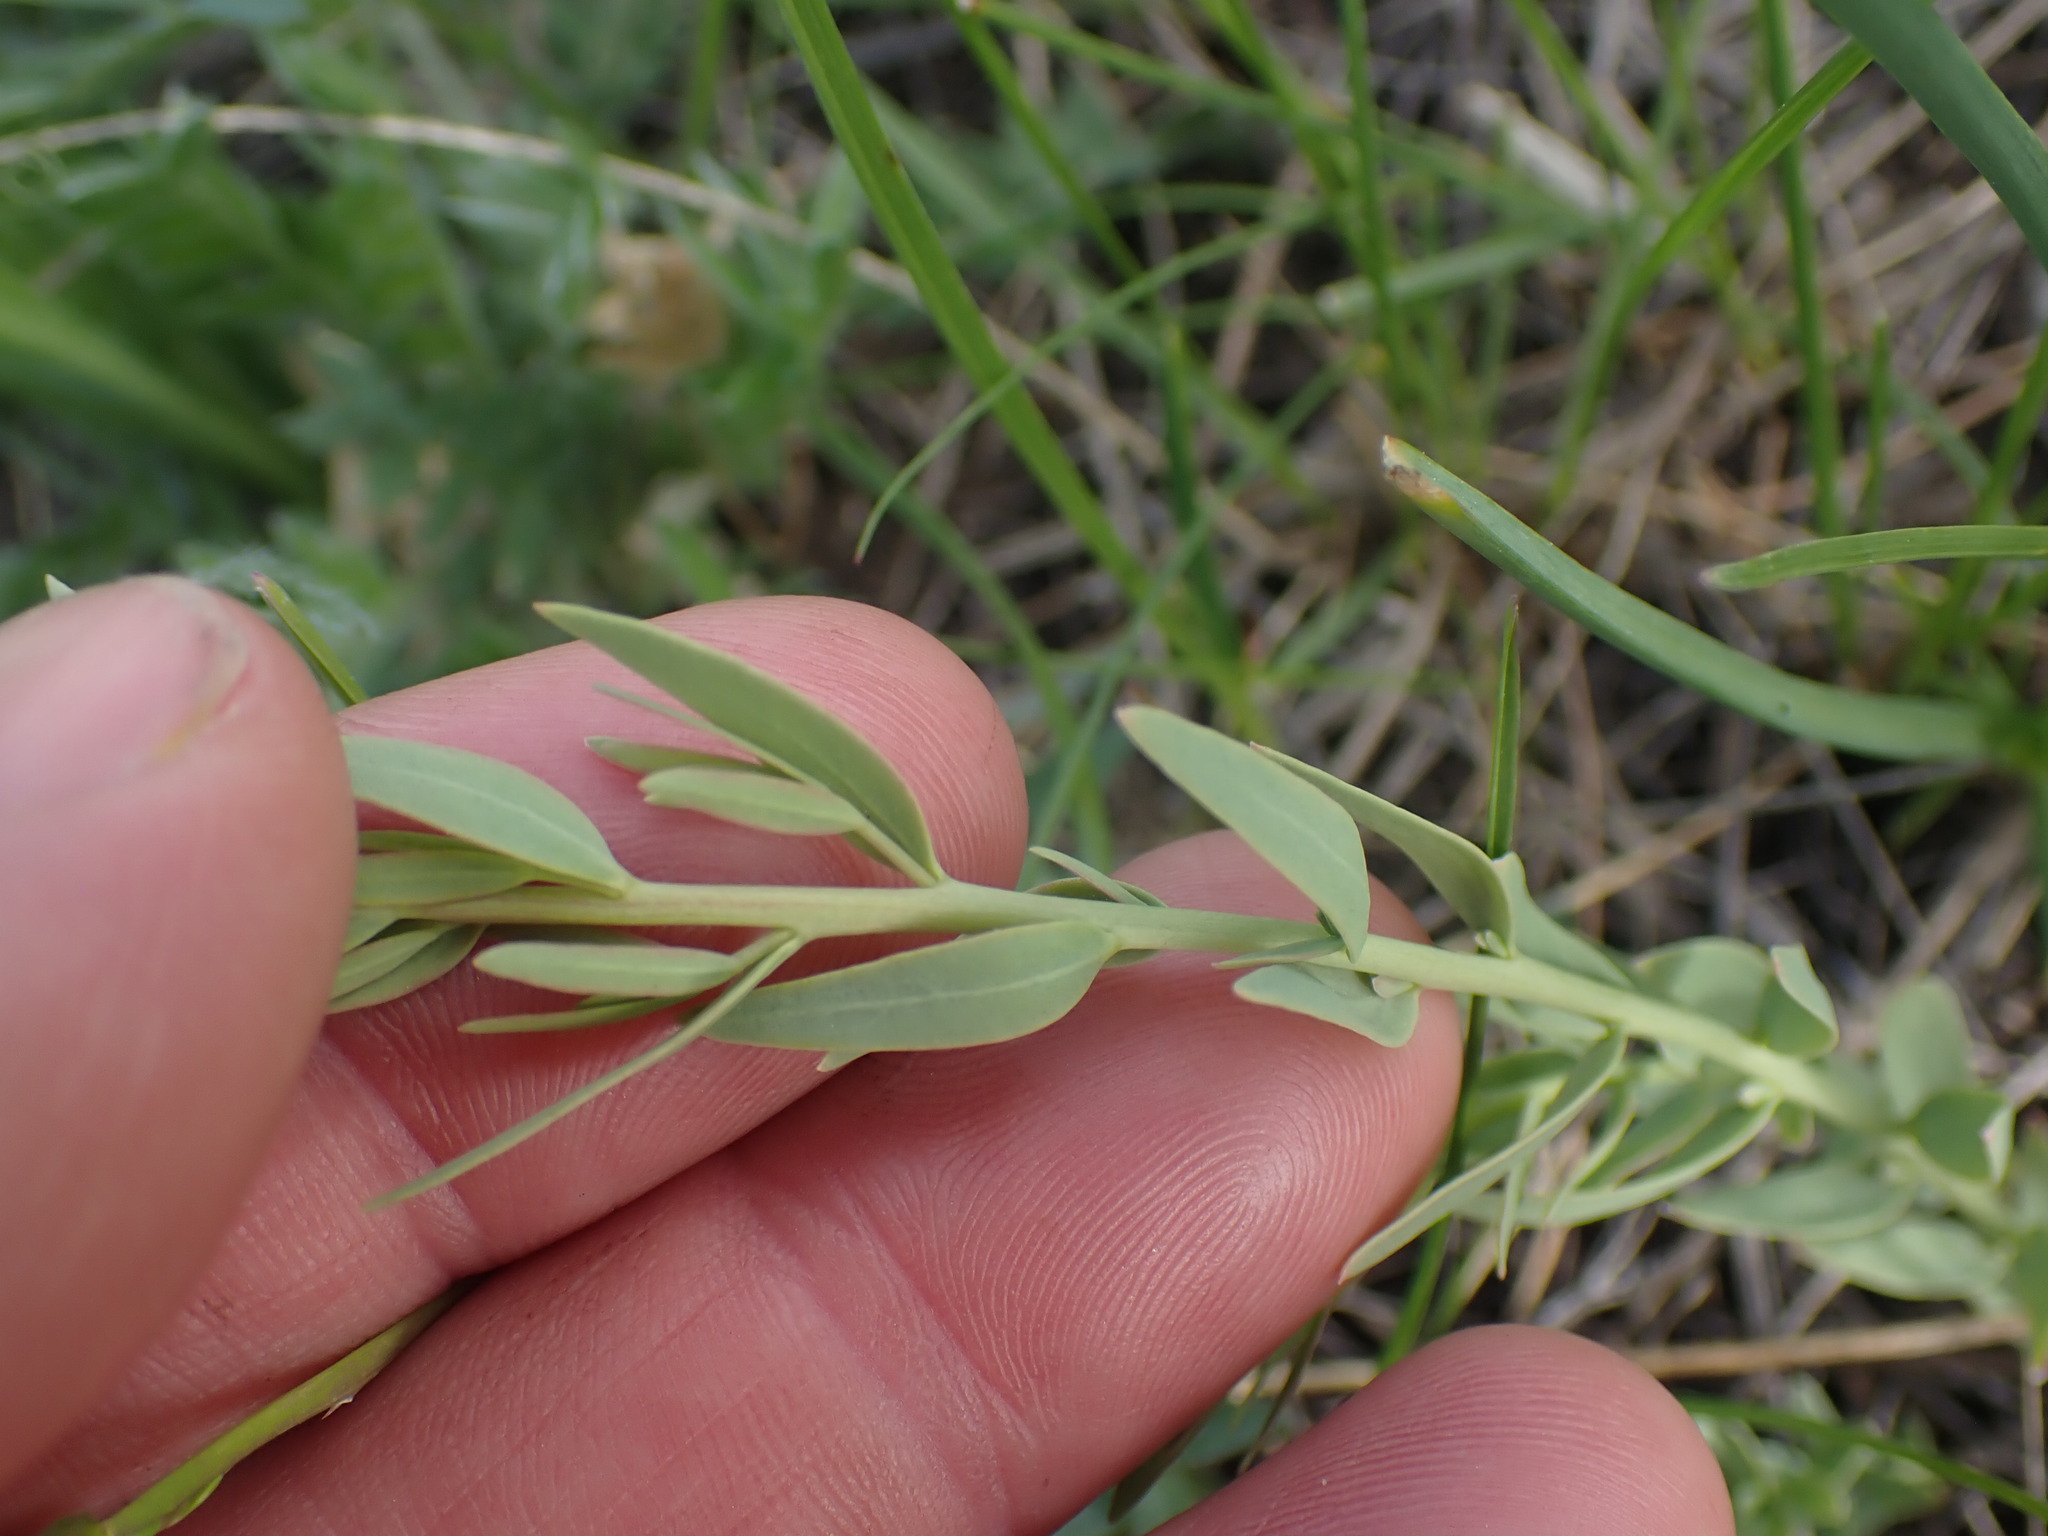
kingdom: Plantae
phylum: Tracheophyta
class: Magnoliopsida
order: Santalales
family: Comandraceae
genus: Comandra
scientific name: Comandra umbellata
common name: Bastard toadflax
